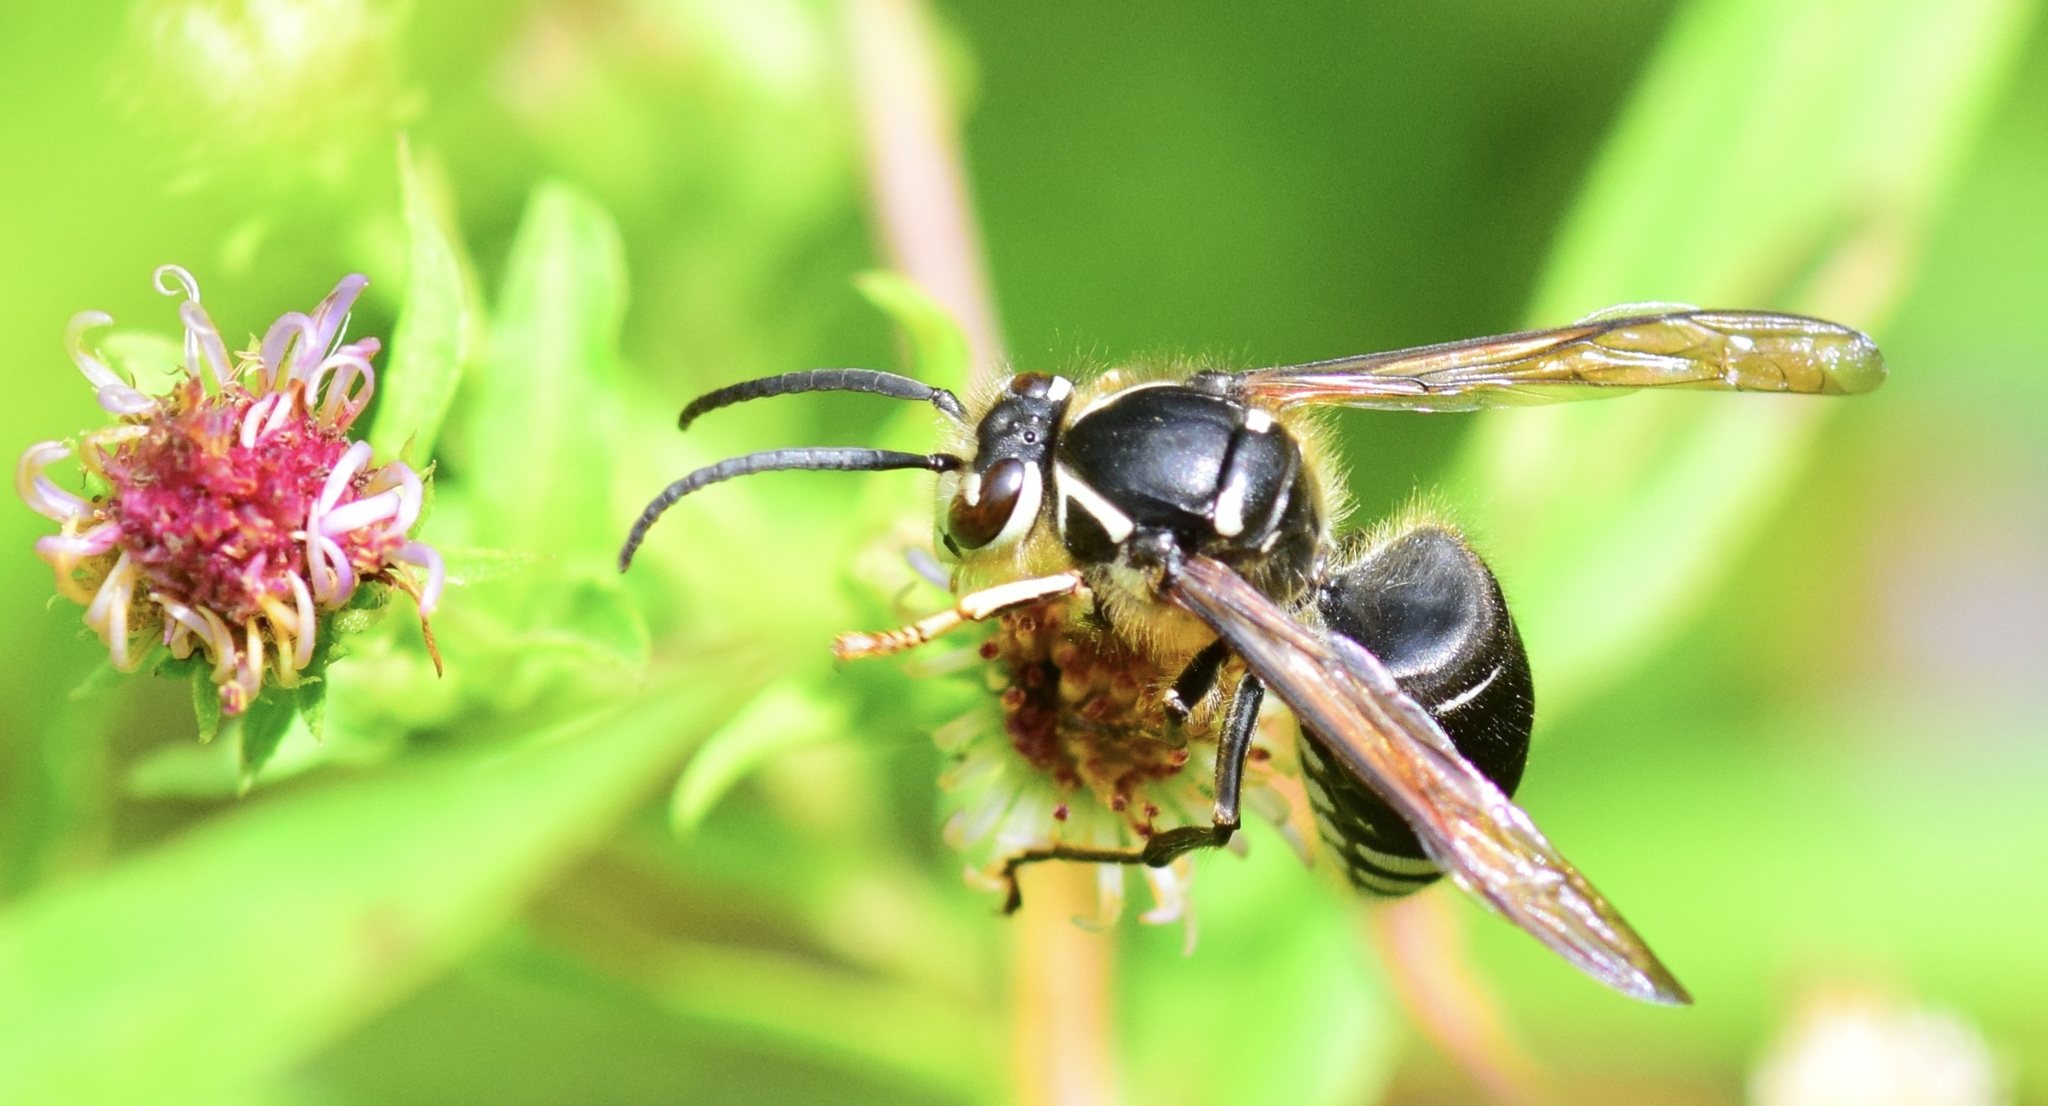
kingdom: Animalia
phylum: Arthropoda
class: Insecta
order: Hymenoptera
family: Vespidae
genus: Dolichovespula
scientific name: Dolichovespula maculata
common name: Bald-faced hornet
